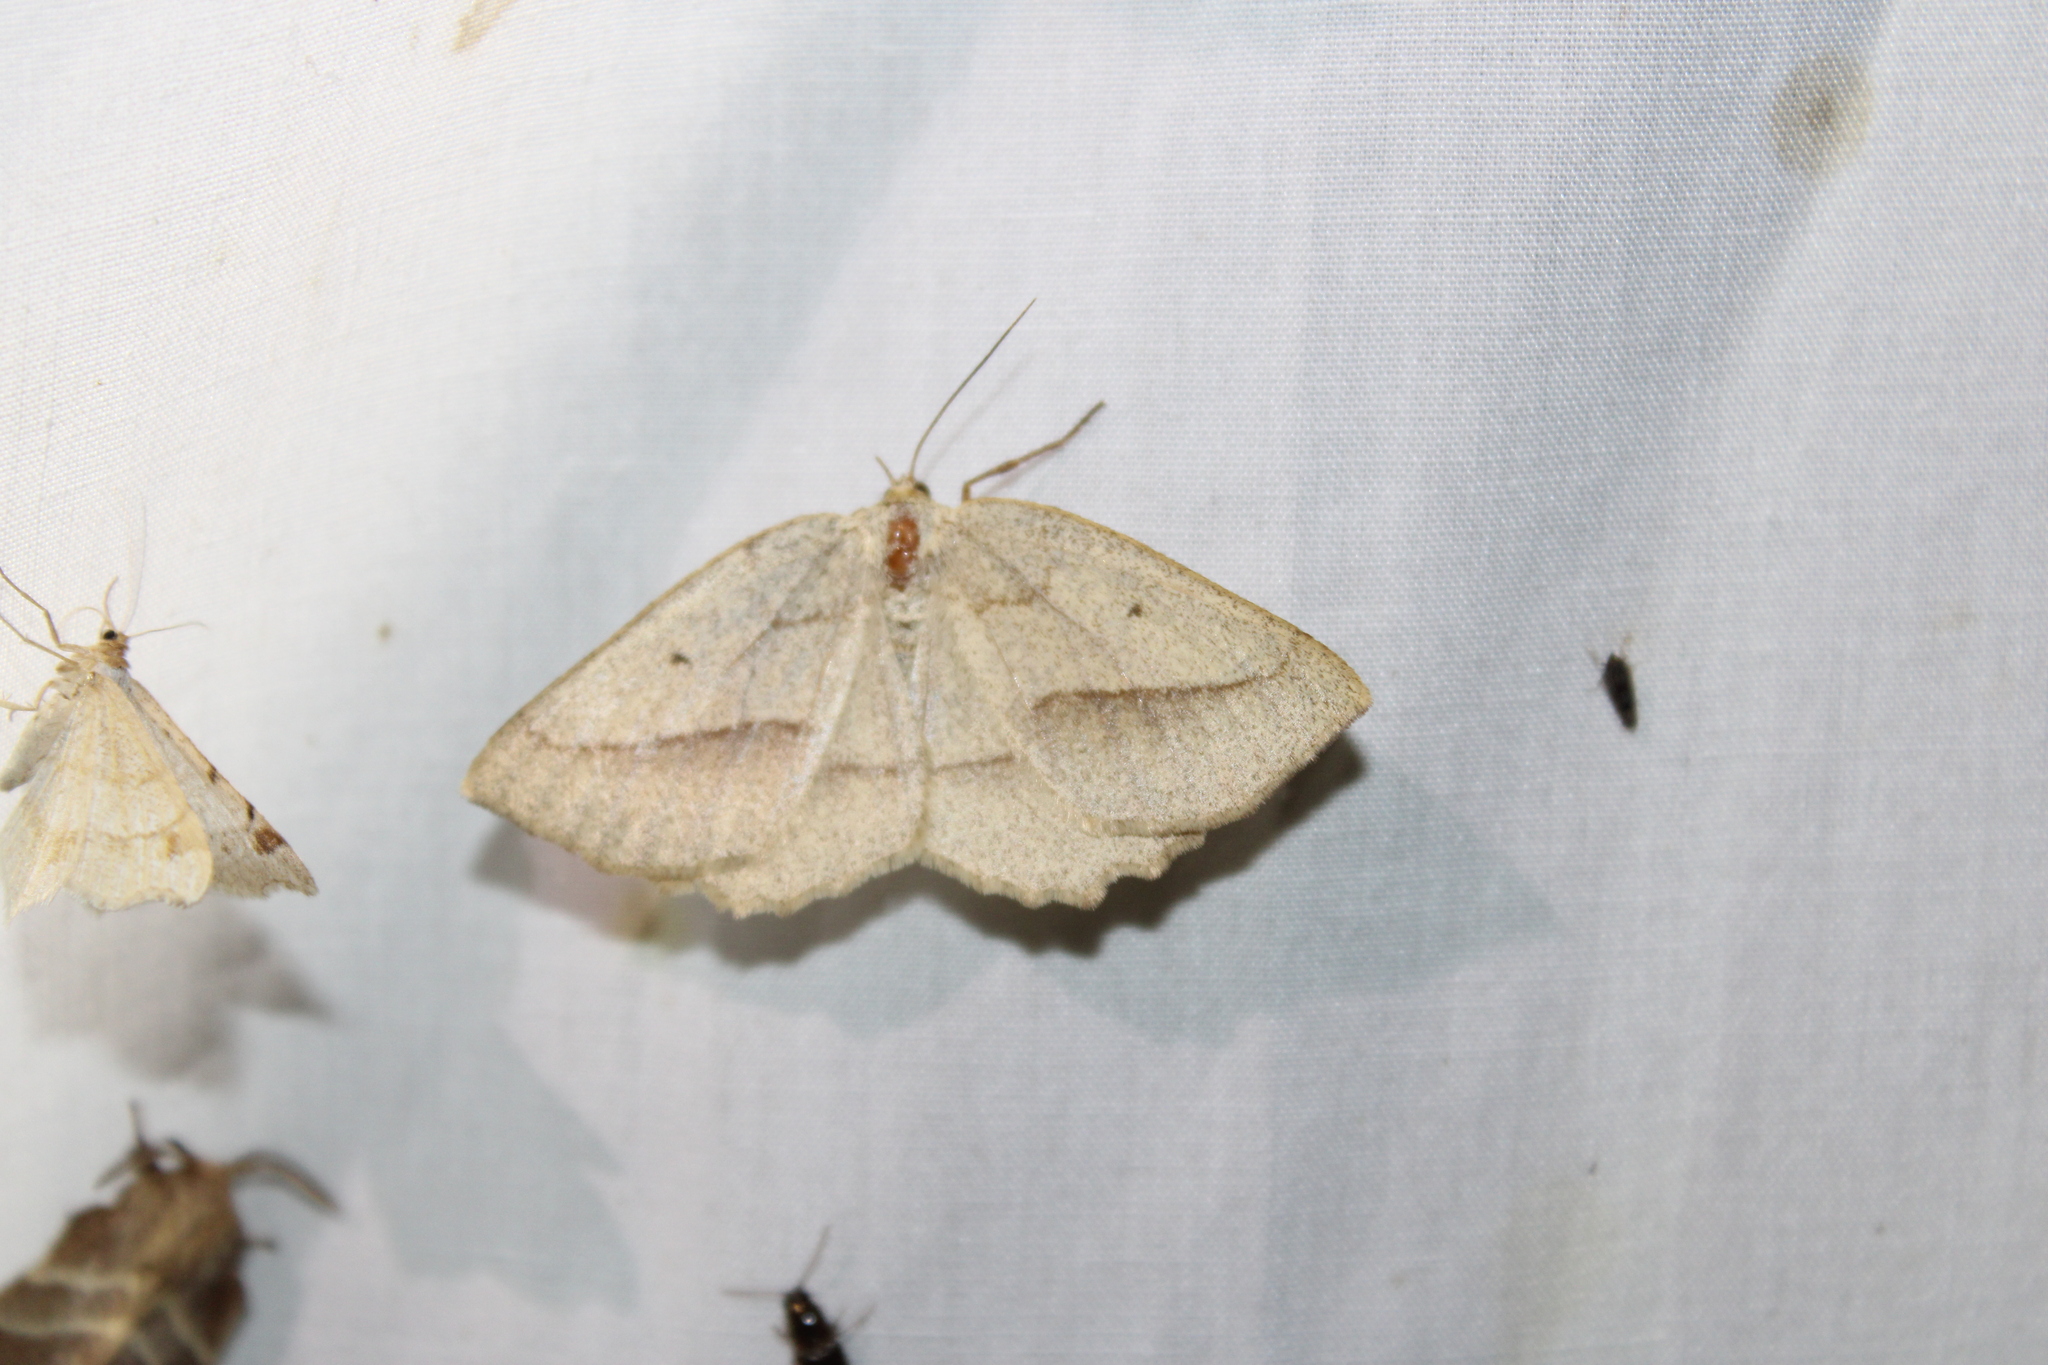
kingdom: Animalia
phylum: Arthropoda
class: Insecta
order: Lepidoptera
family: Geometridae
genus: Euchlaena
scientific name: Euchlaena irraria
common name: Least-marked euchlaena
